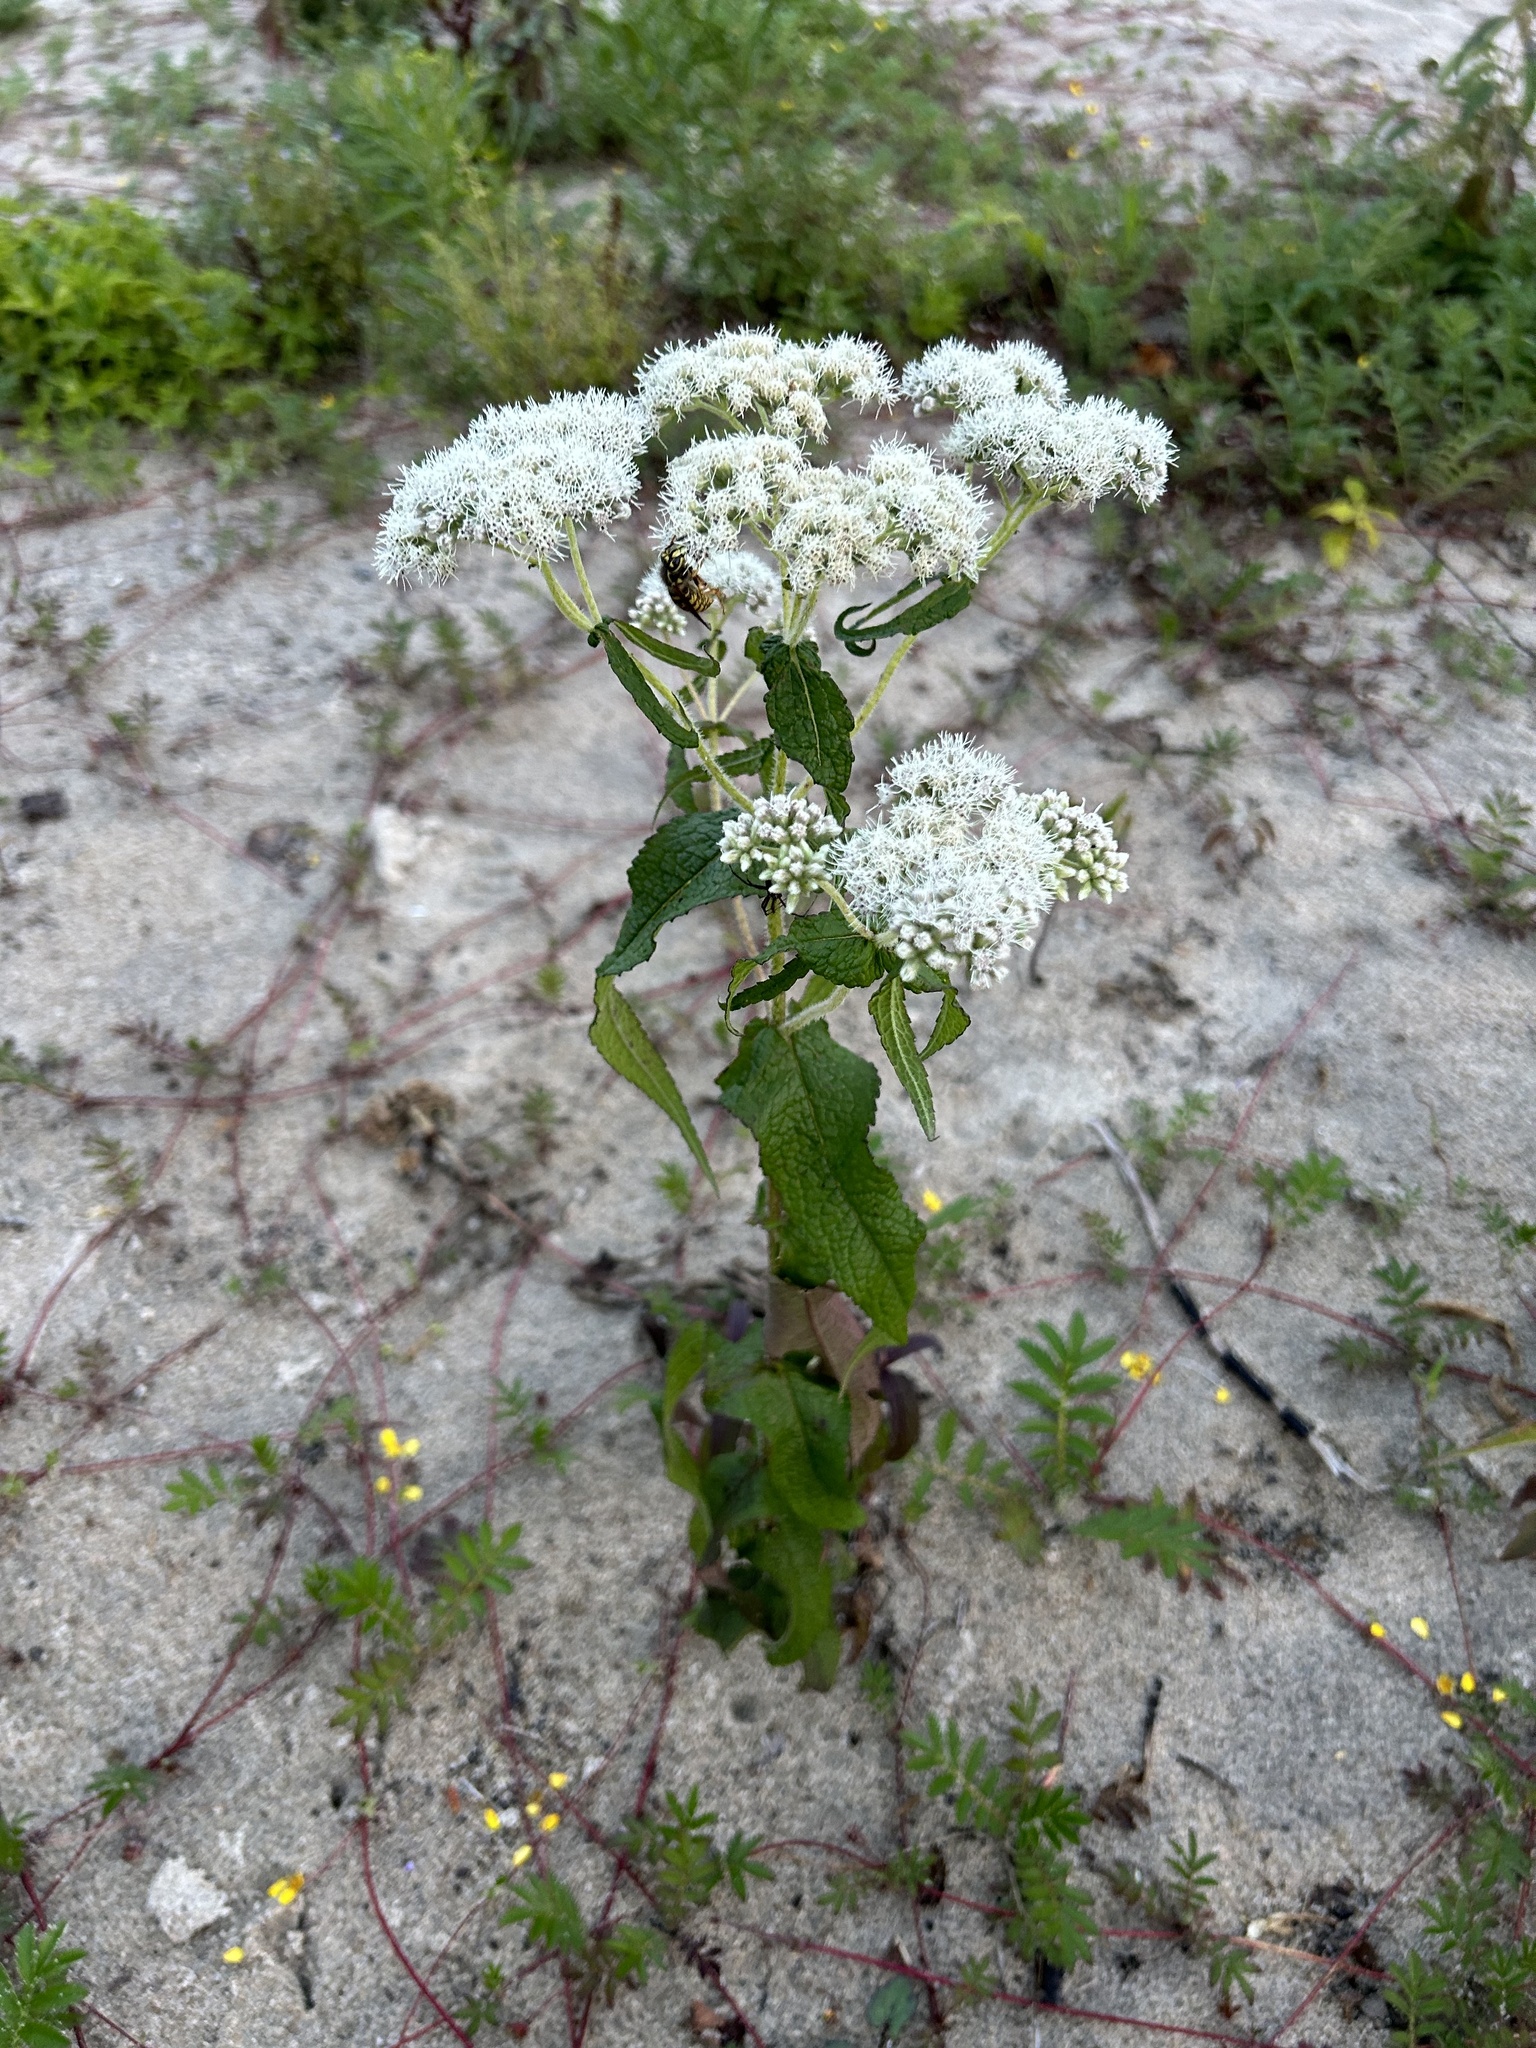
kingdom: Plantae
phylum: Tracheophyta
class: Magnoliopsida
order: Asterales
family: Asteraceae
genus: Eupatorium
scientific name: Eupatorium perfoliatum
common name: Boneset
